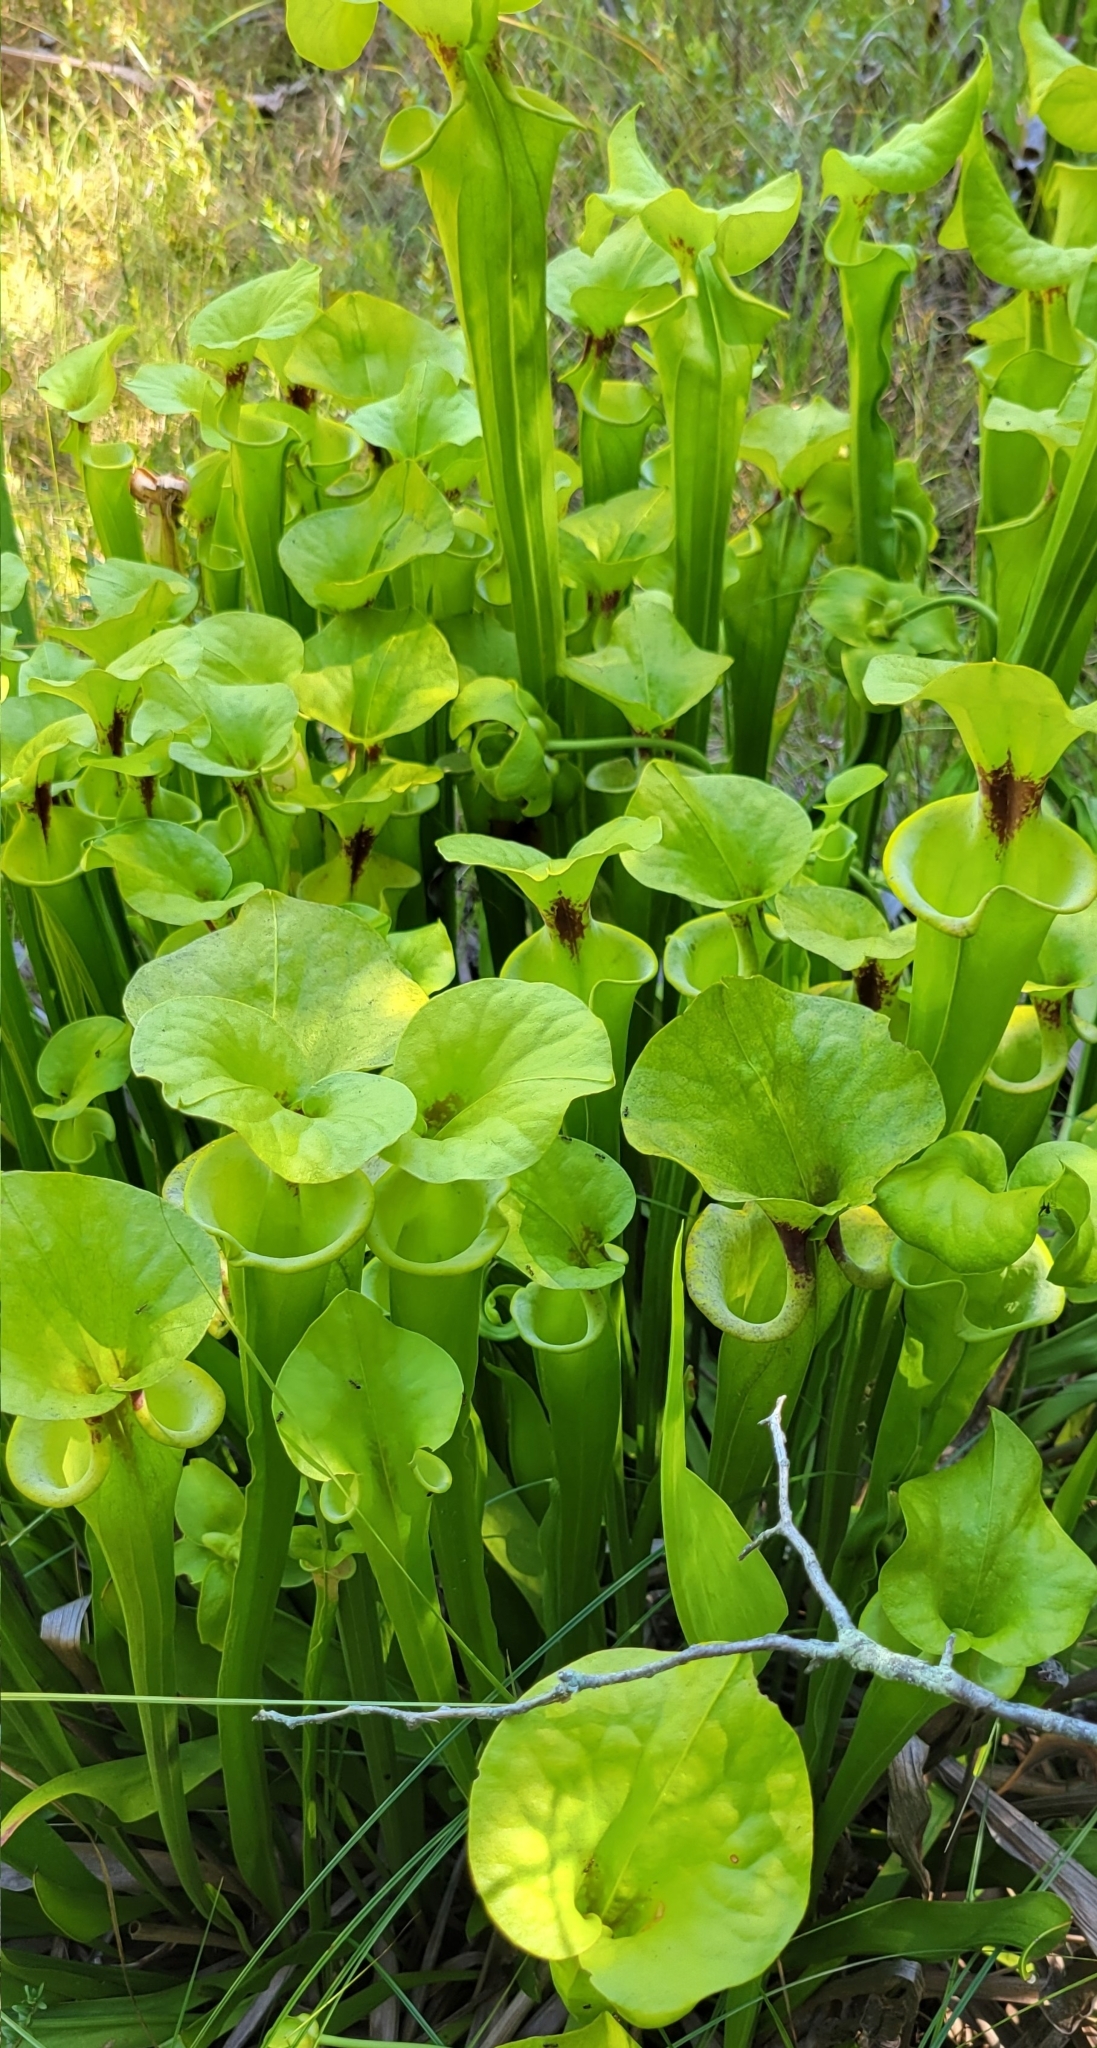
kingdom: Plantae
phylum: Tracheophyta
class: Magnoliopsida
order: Ericales
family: Sarraceniaceae
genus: Sarracenia
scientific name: Sarracenia flava
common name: Trumpets
